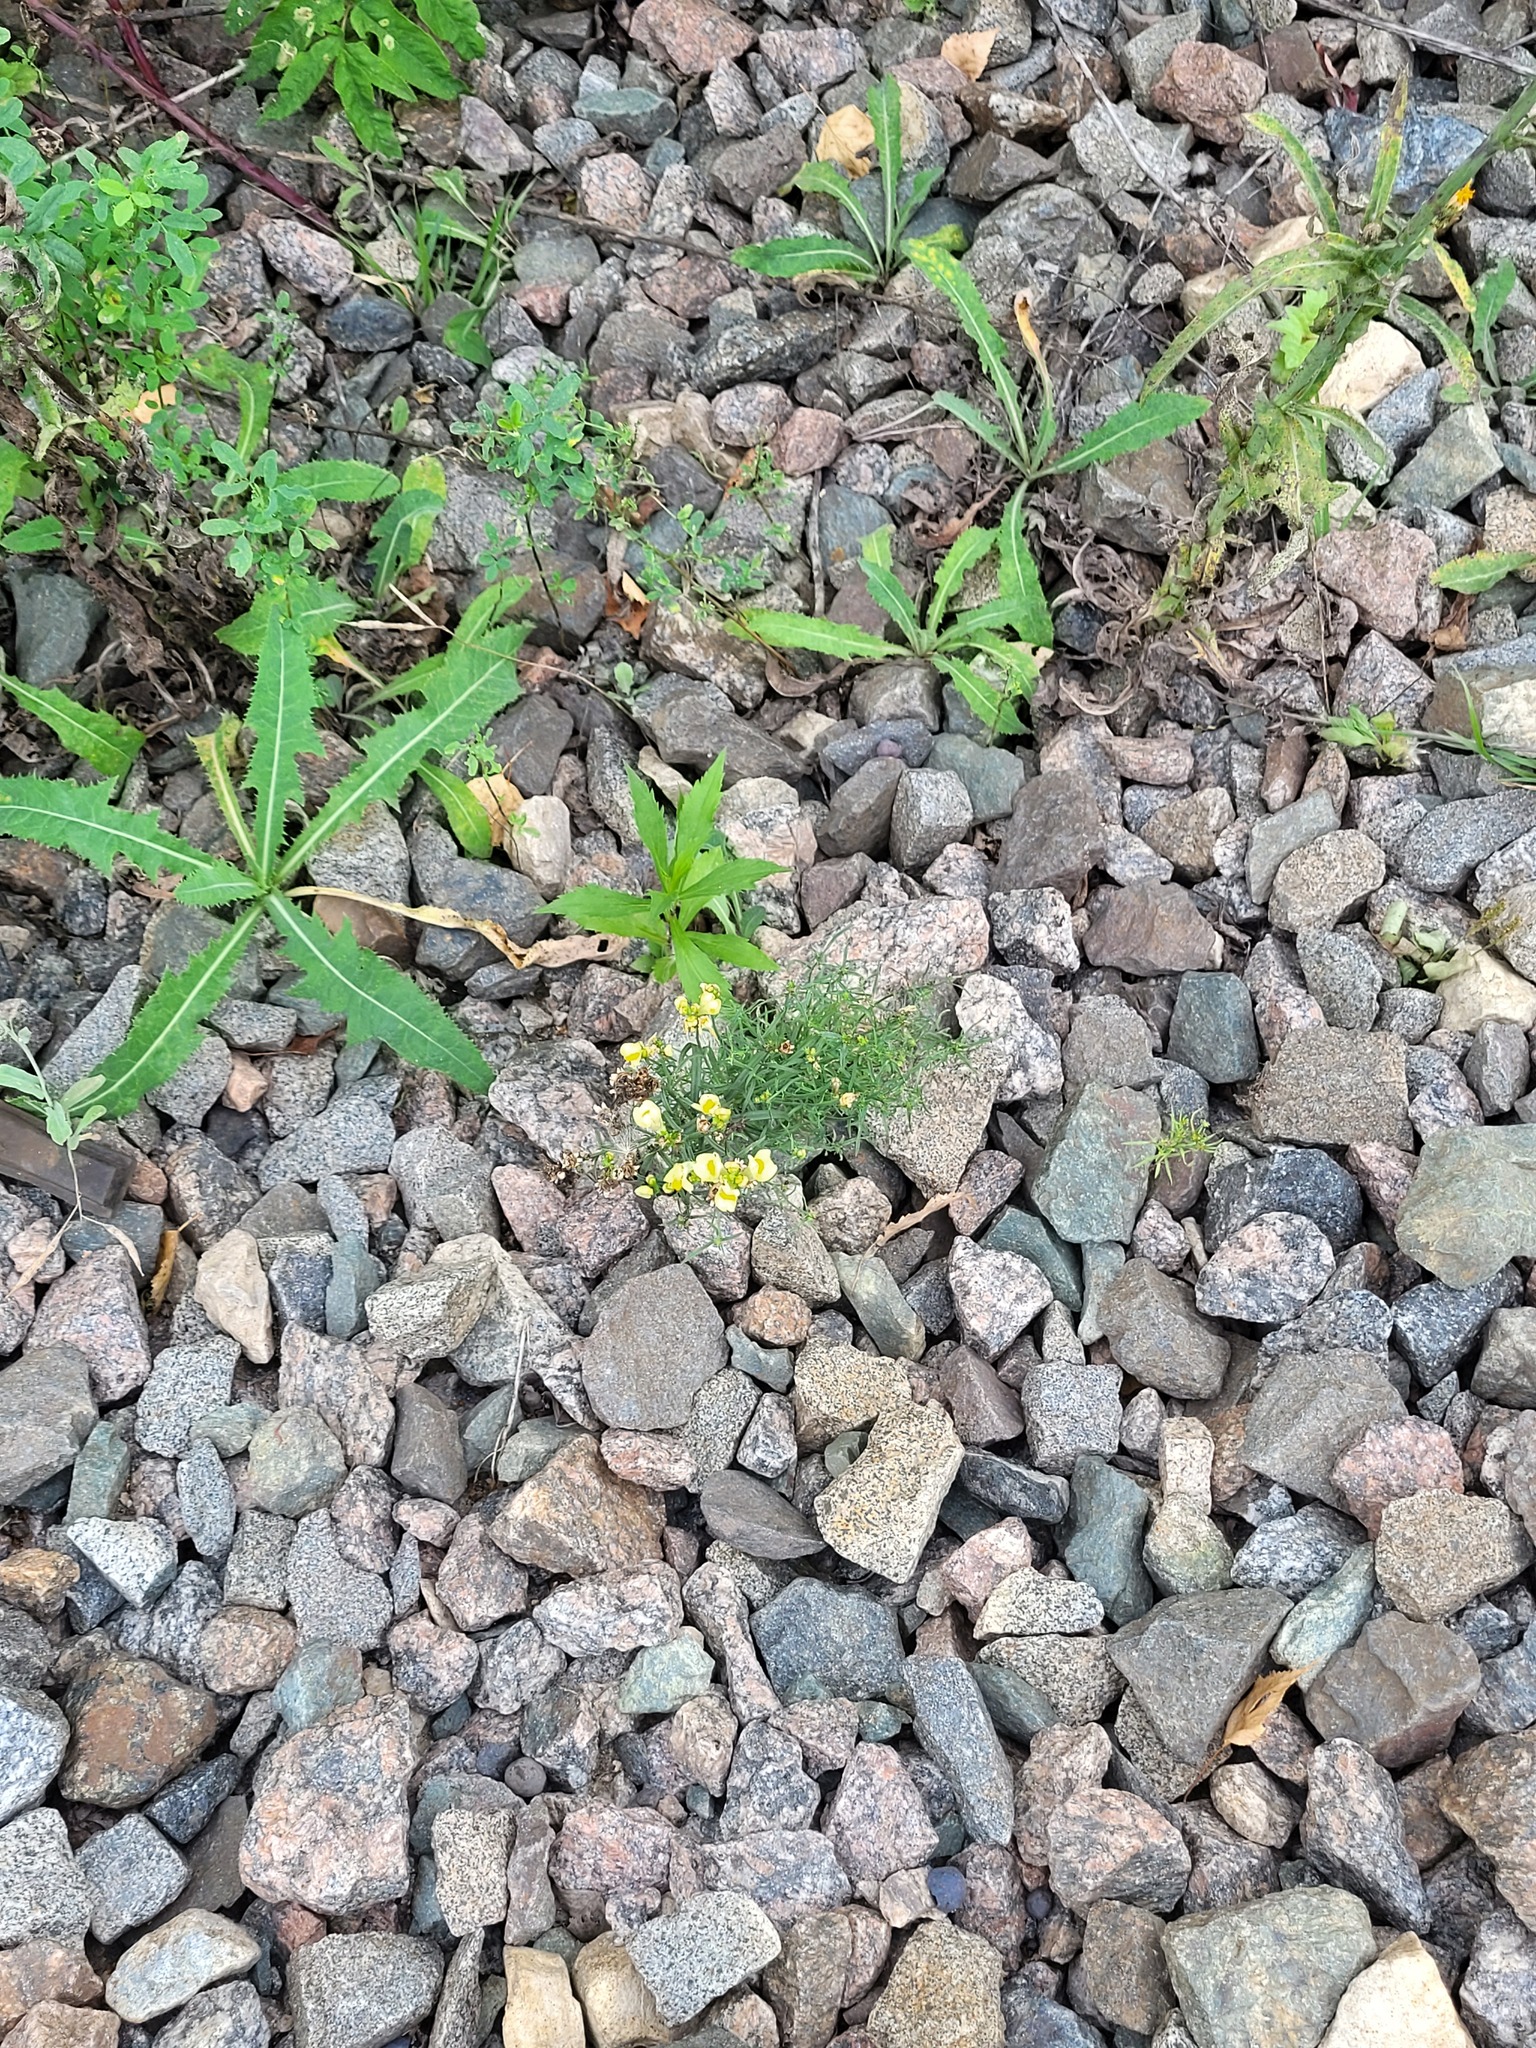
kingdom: Plantae
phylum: Tracheophyta
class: Magnoliopsida
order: Lamiales
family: Plantaginaceae
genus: Linaria
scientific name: Linaria vulgaris
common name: Butter and eggs
